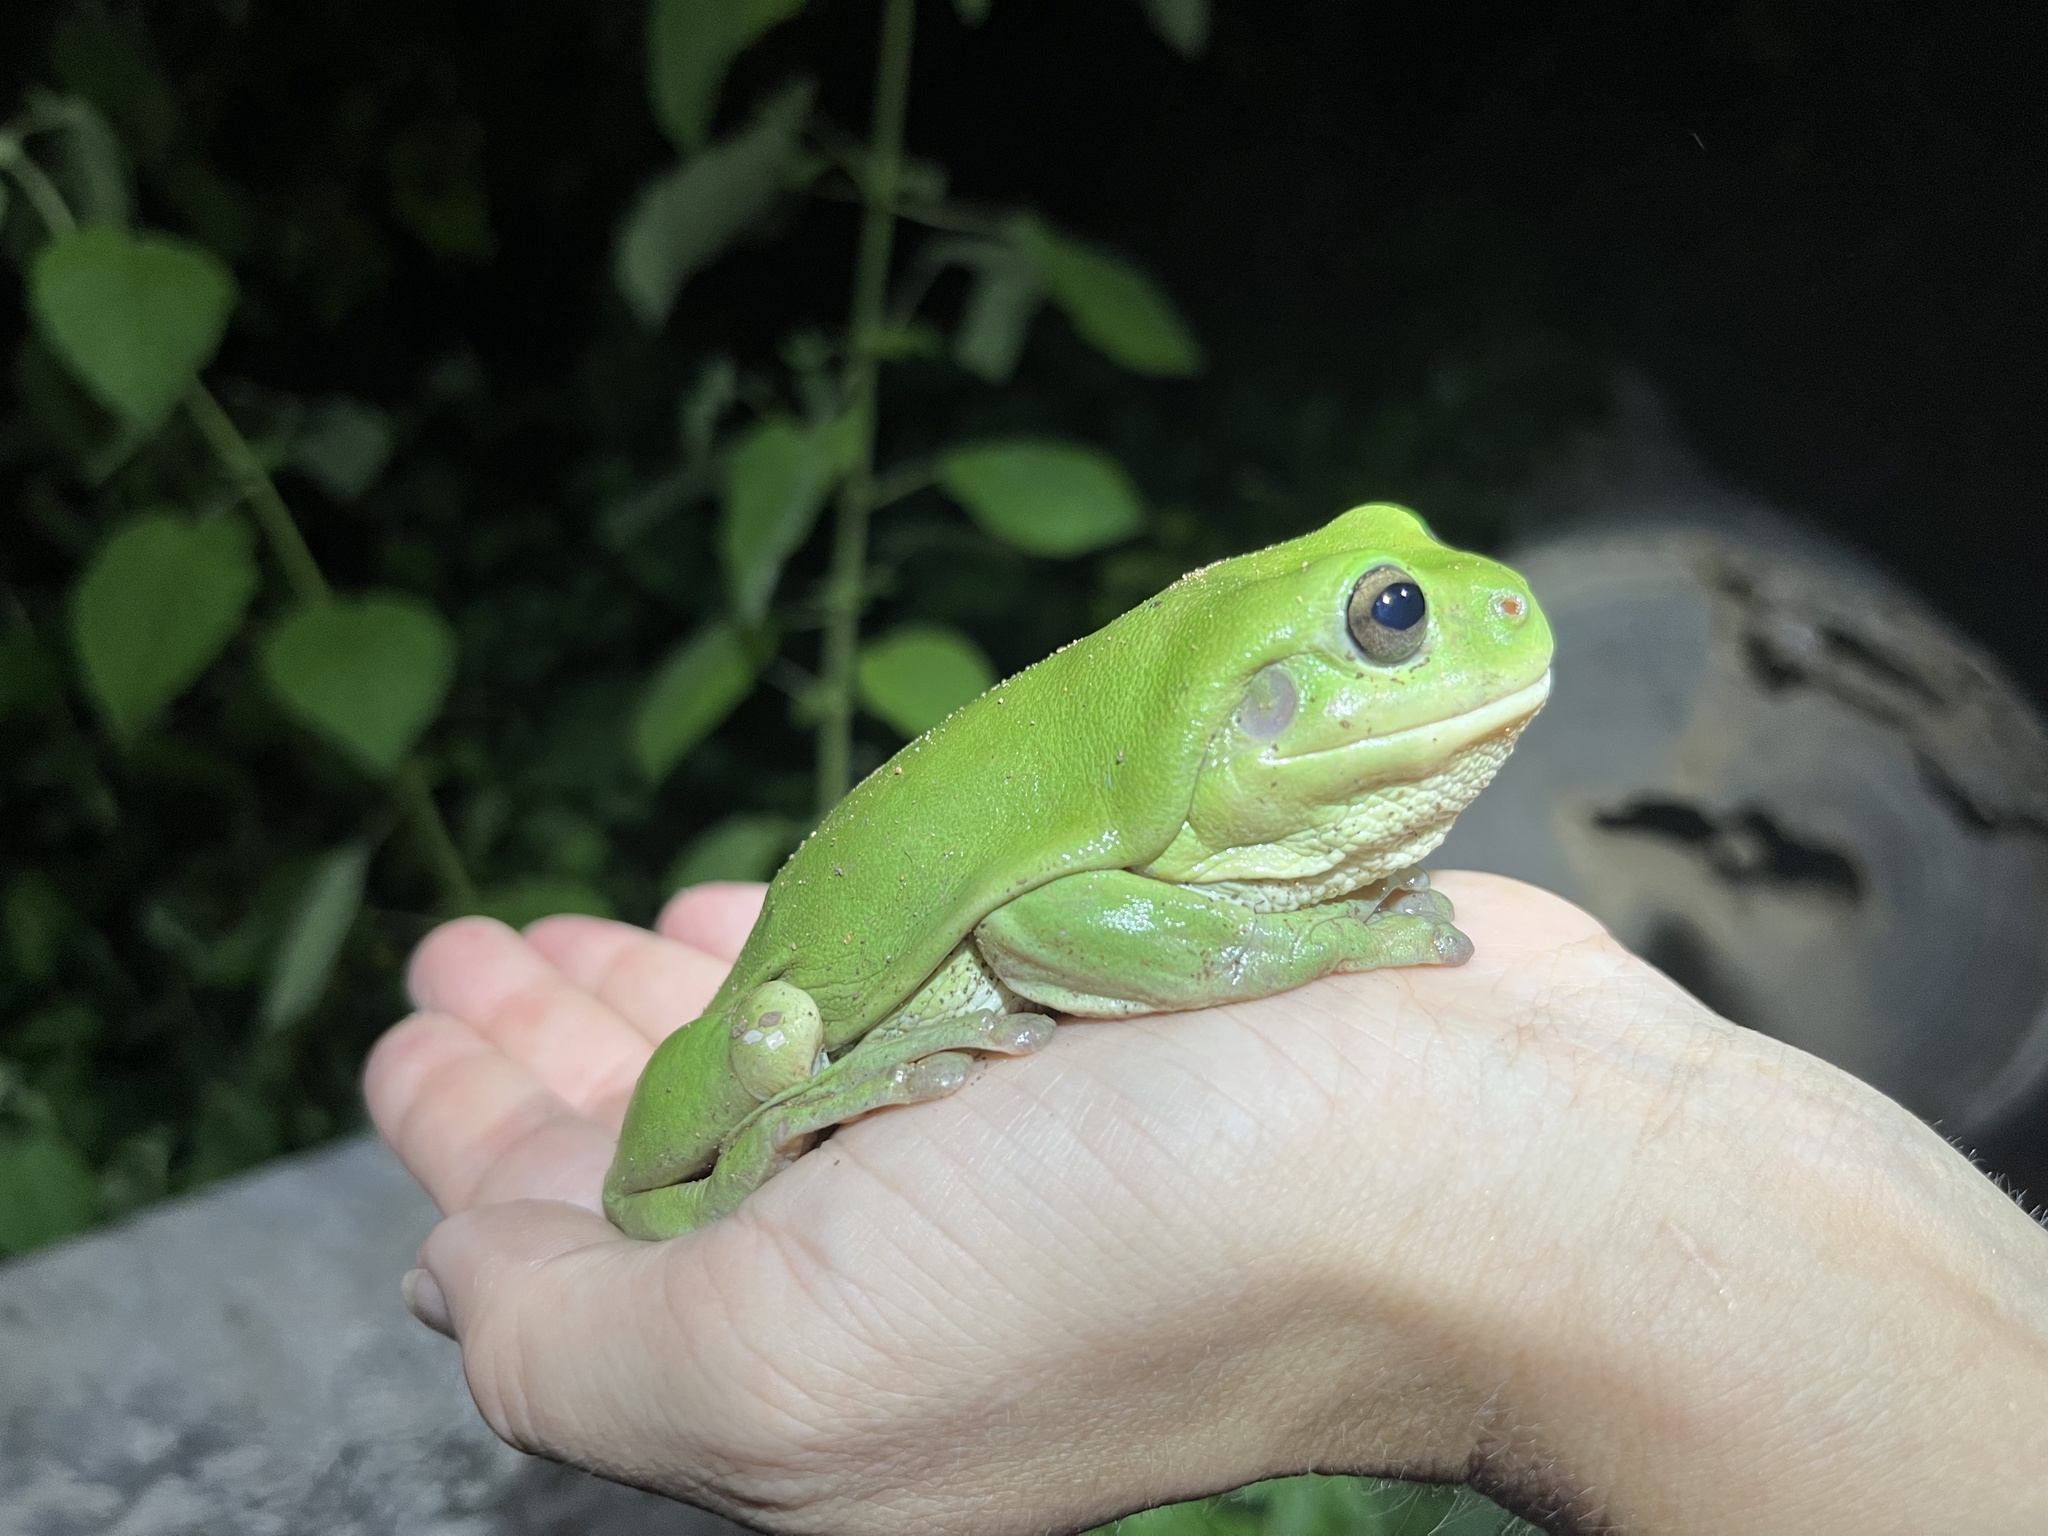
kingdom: Animalia
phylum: Chordata
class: Amphibia
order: Anura
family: Pelodryadidae
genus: Ranoidea
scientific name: Ranoidea caerulea
